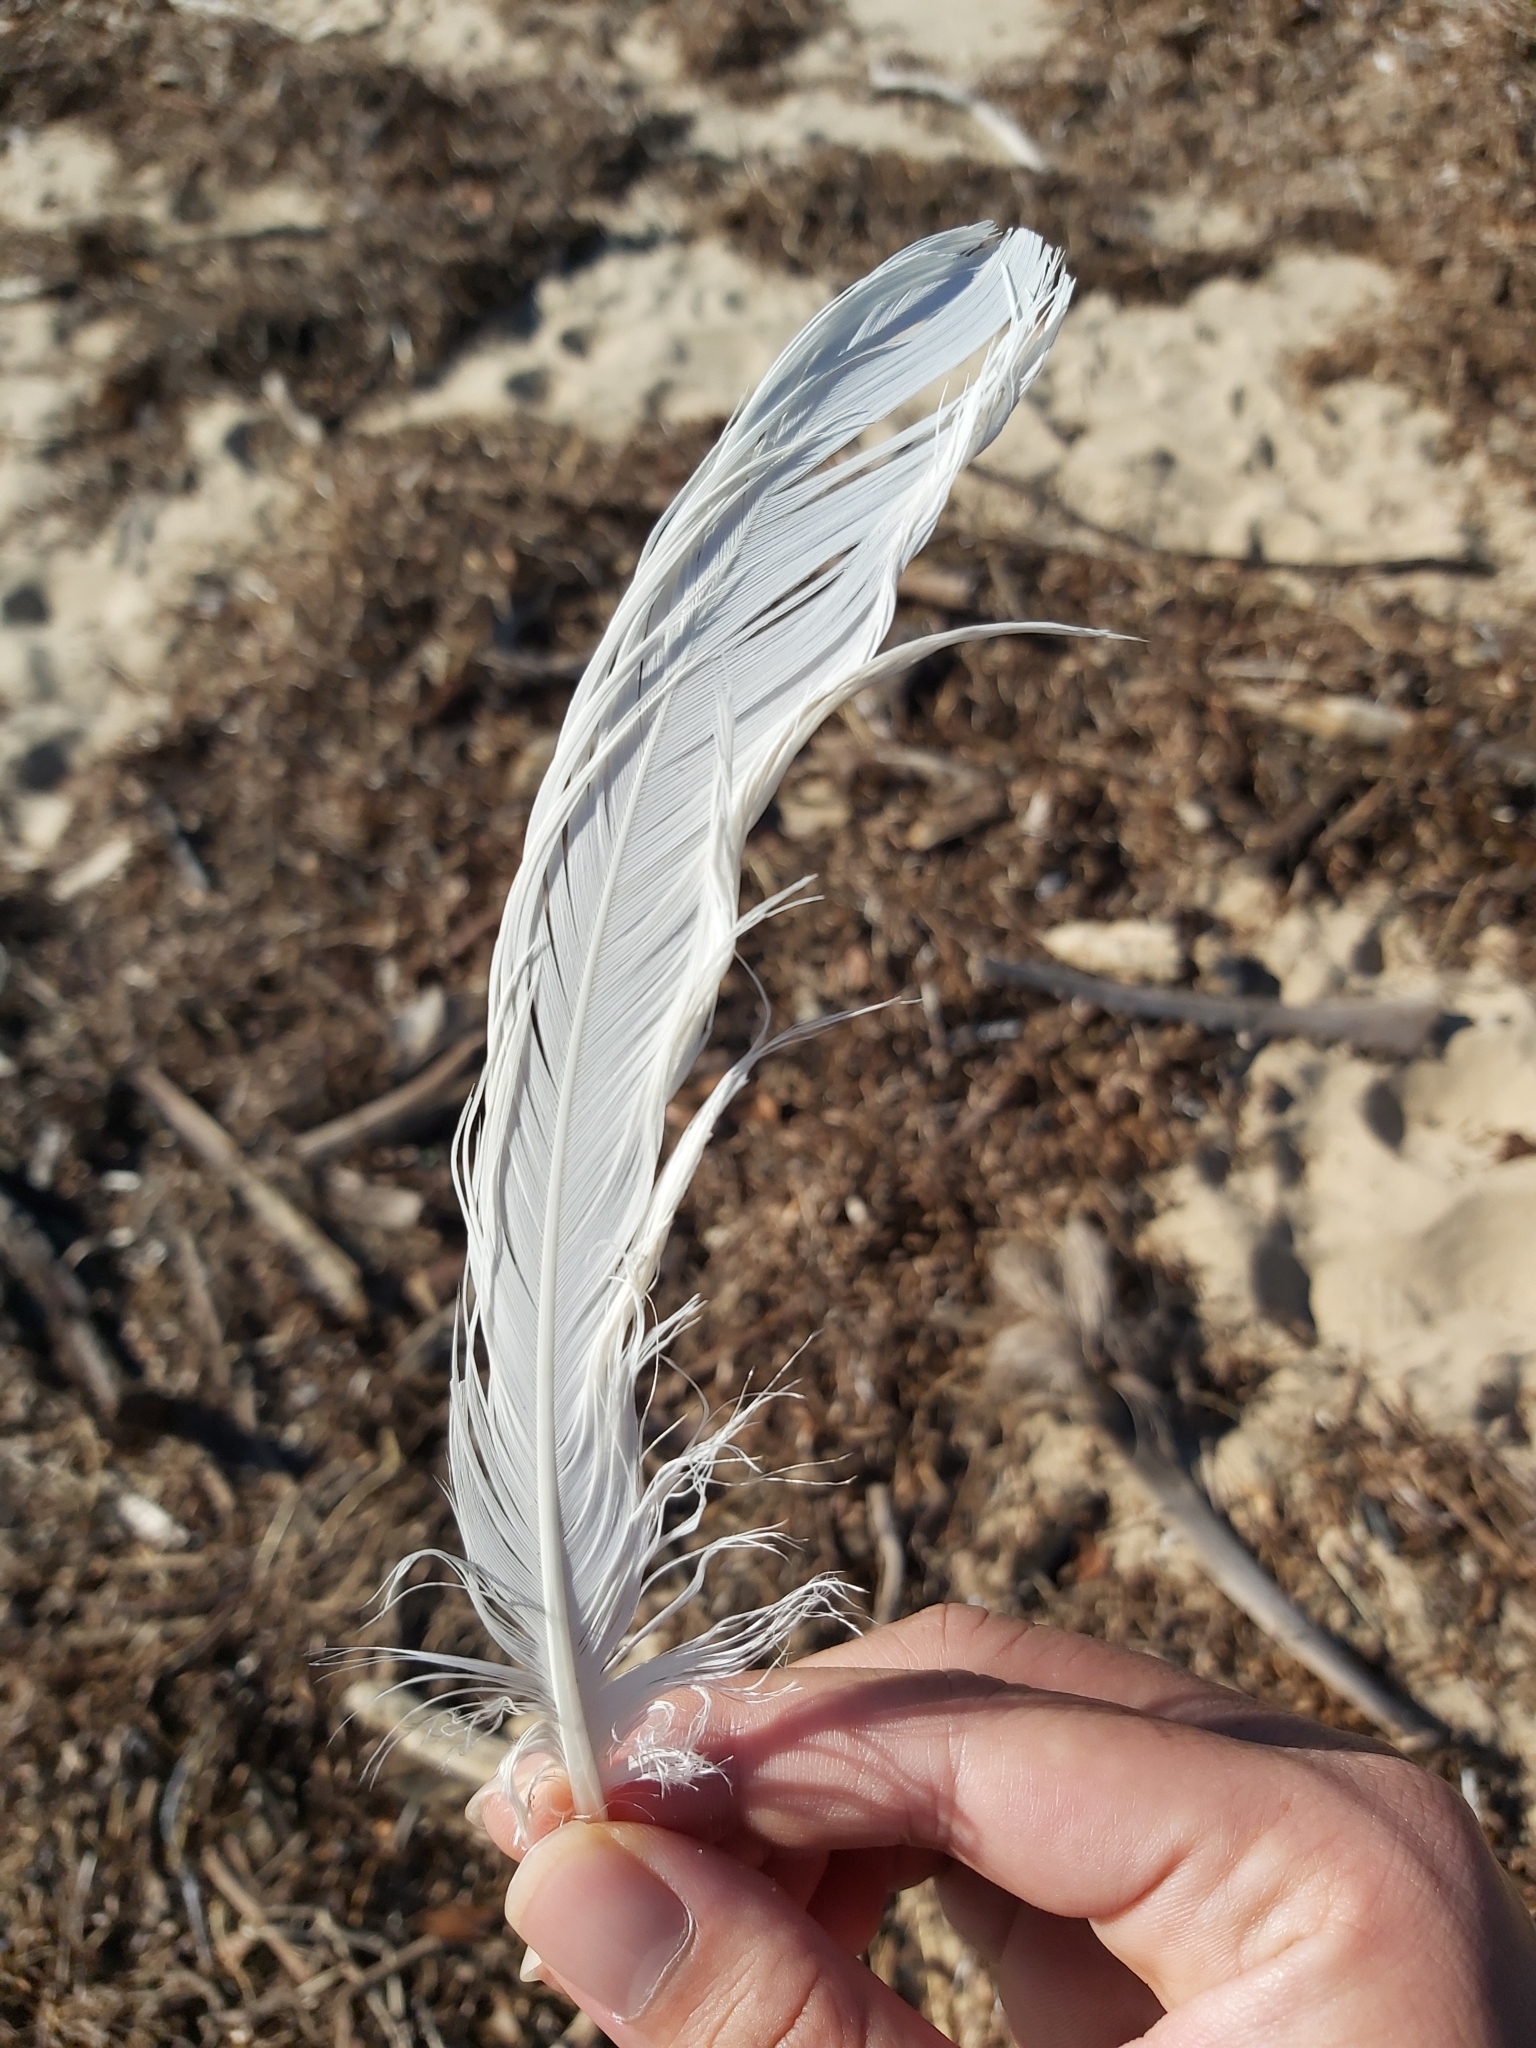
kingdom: Animalia
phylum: Chordata
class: Aves
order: Pelecaniformes
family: Threskiornithidae
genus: Threskiornis
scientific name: Threskiornis molucca
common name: Australian white ibis
